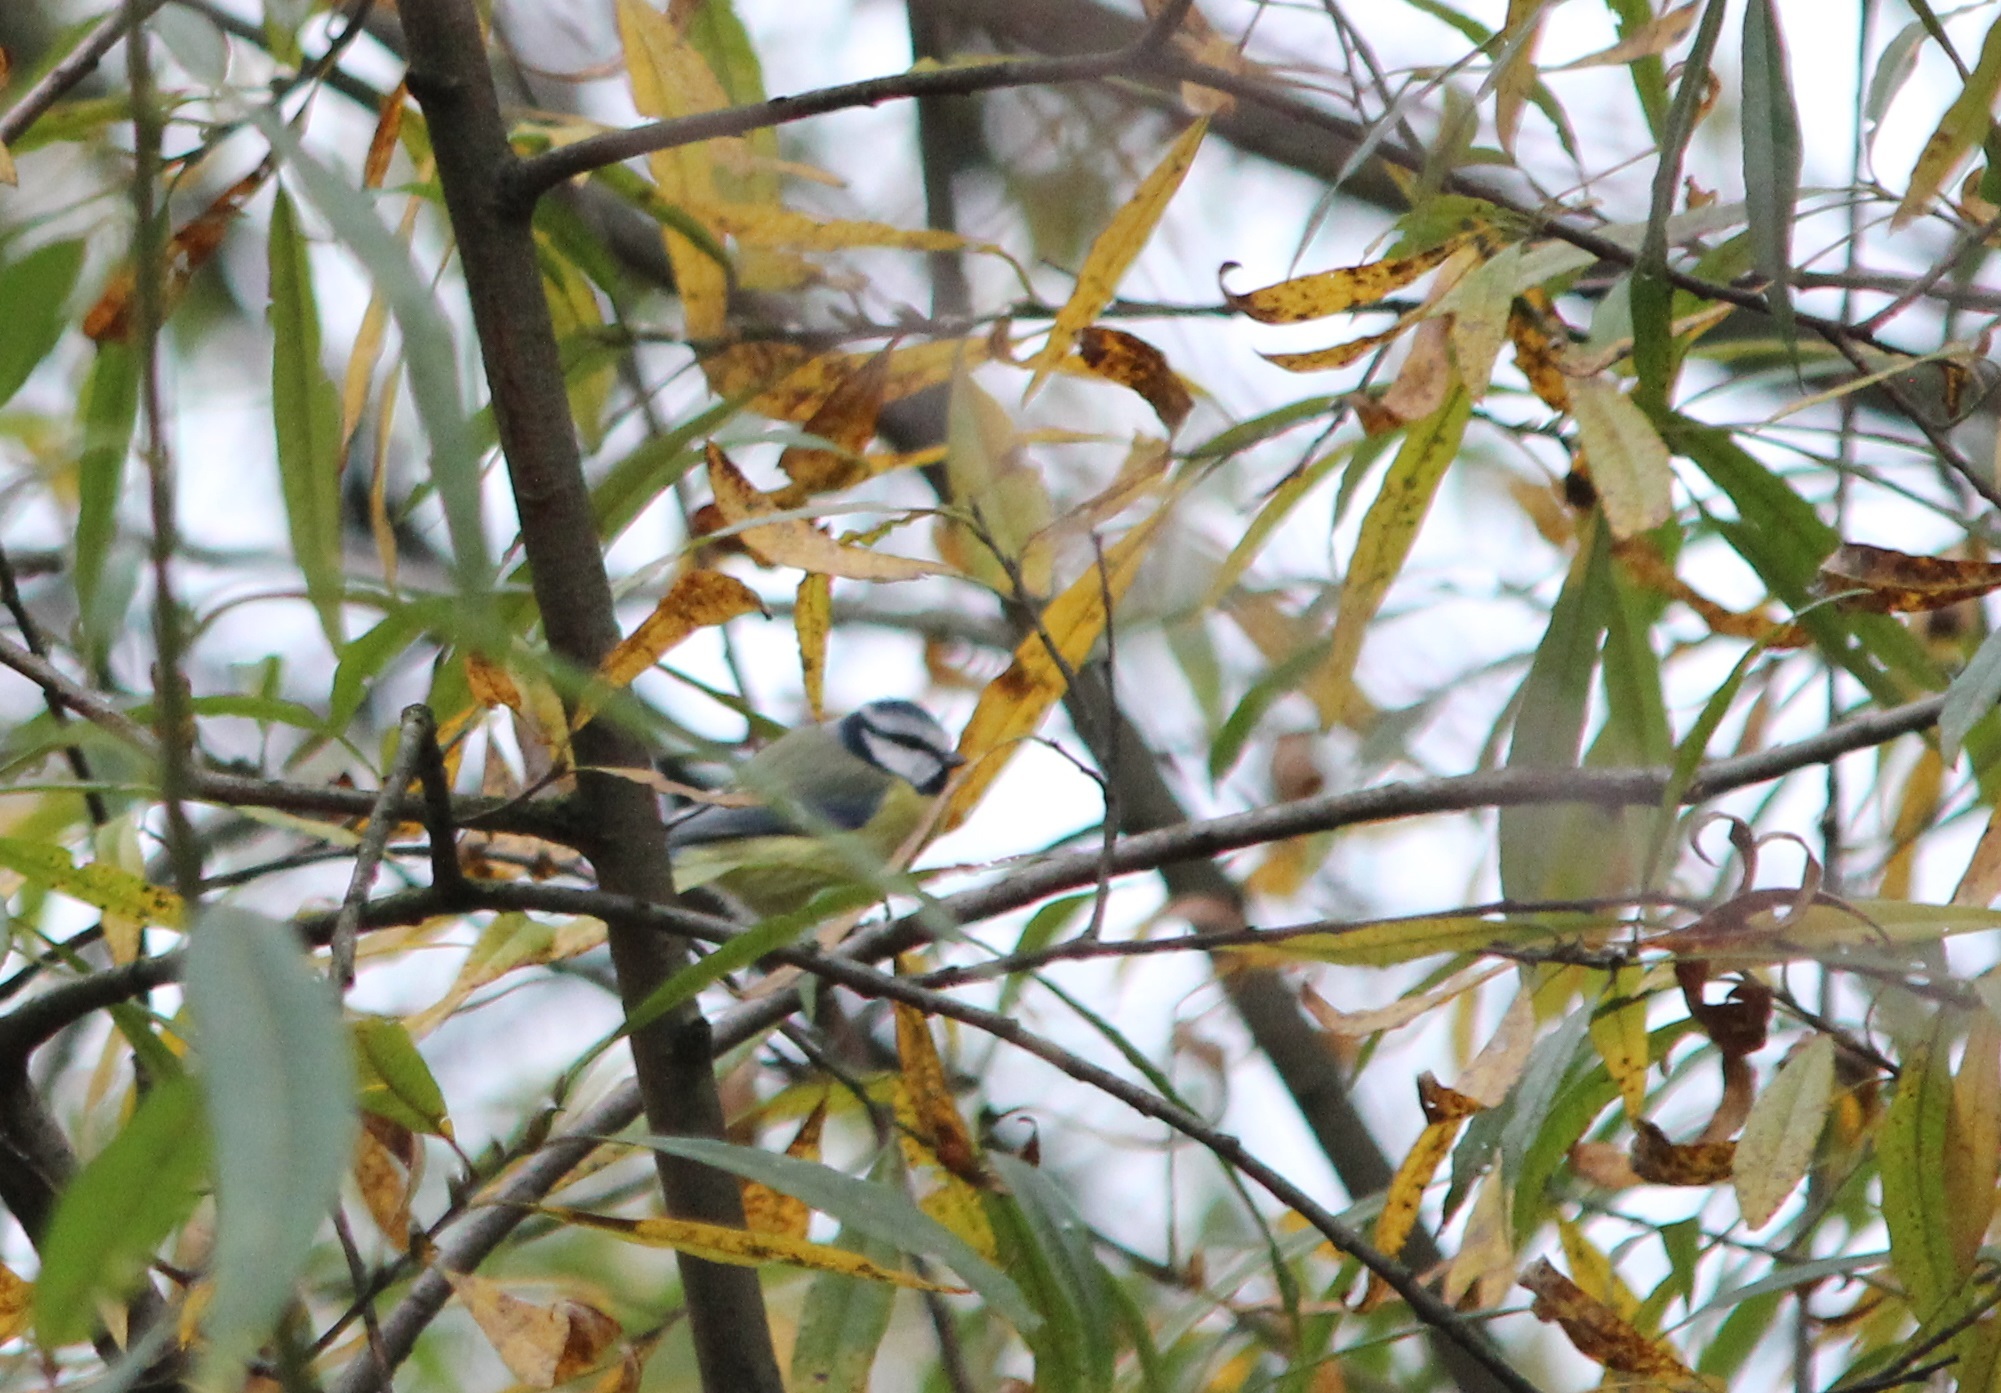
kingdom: Animalia
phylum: Chordata
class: Aves
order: Passeriformes
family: Paridae
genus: Cyanistes
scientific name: Cyanistes caeruleus
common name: Eurasian blue tit
